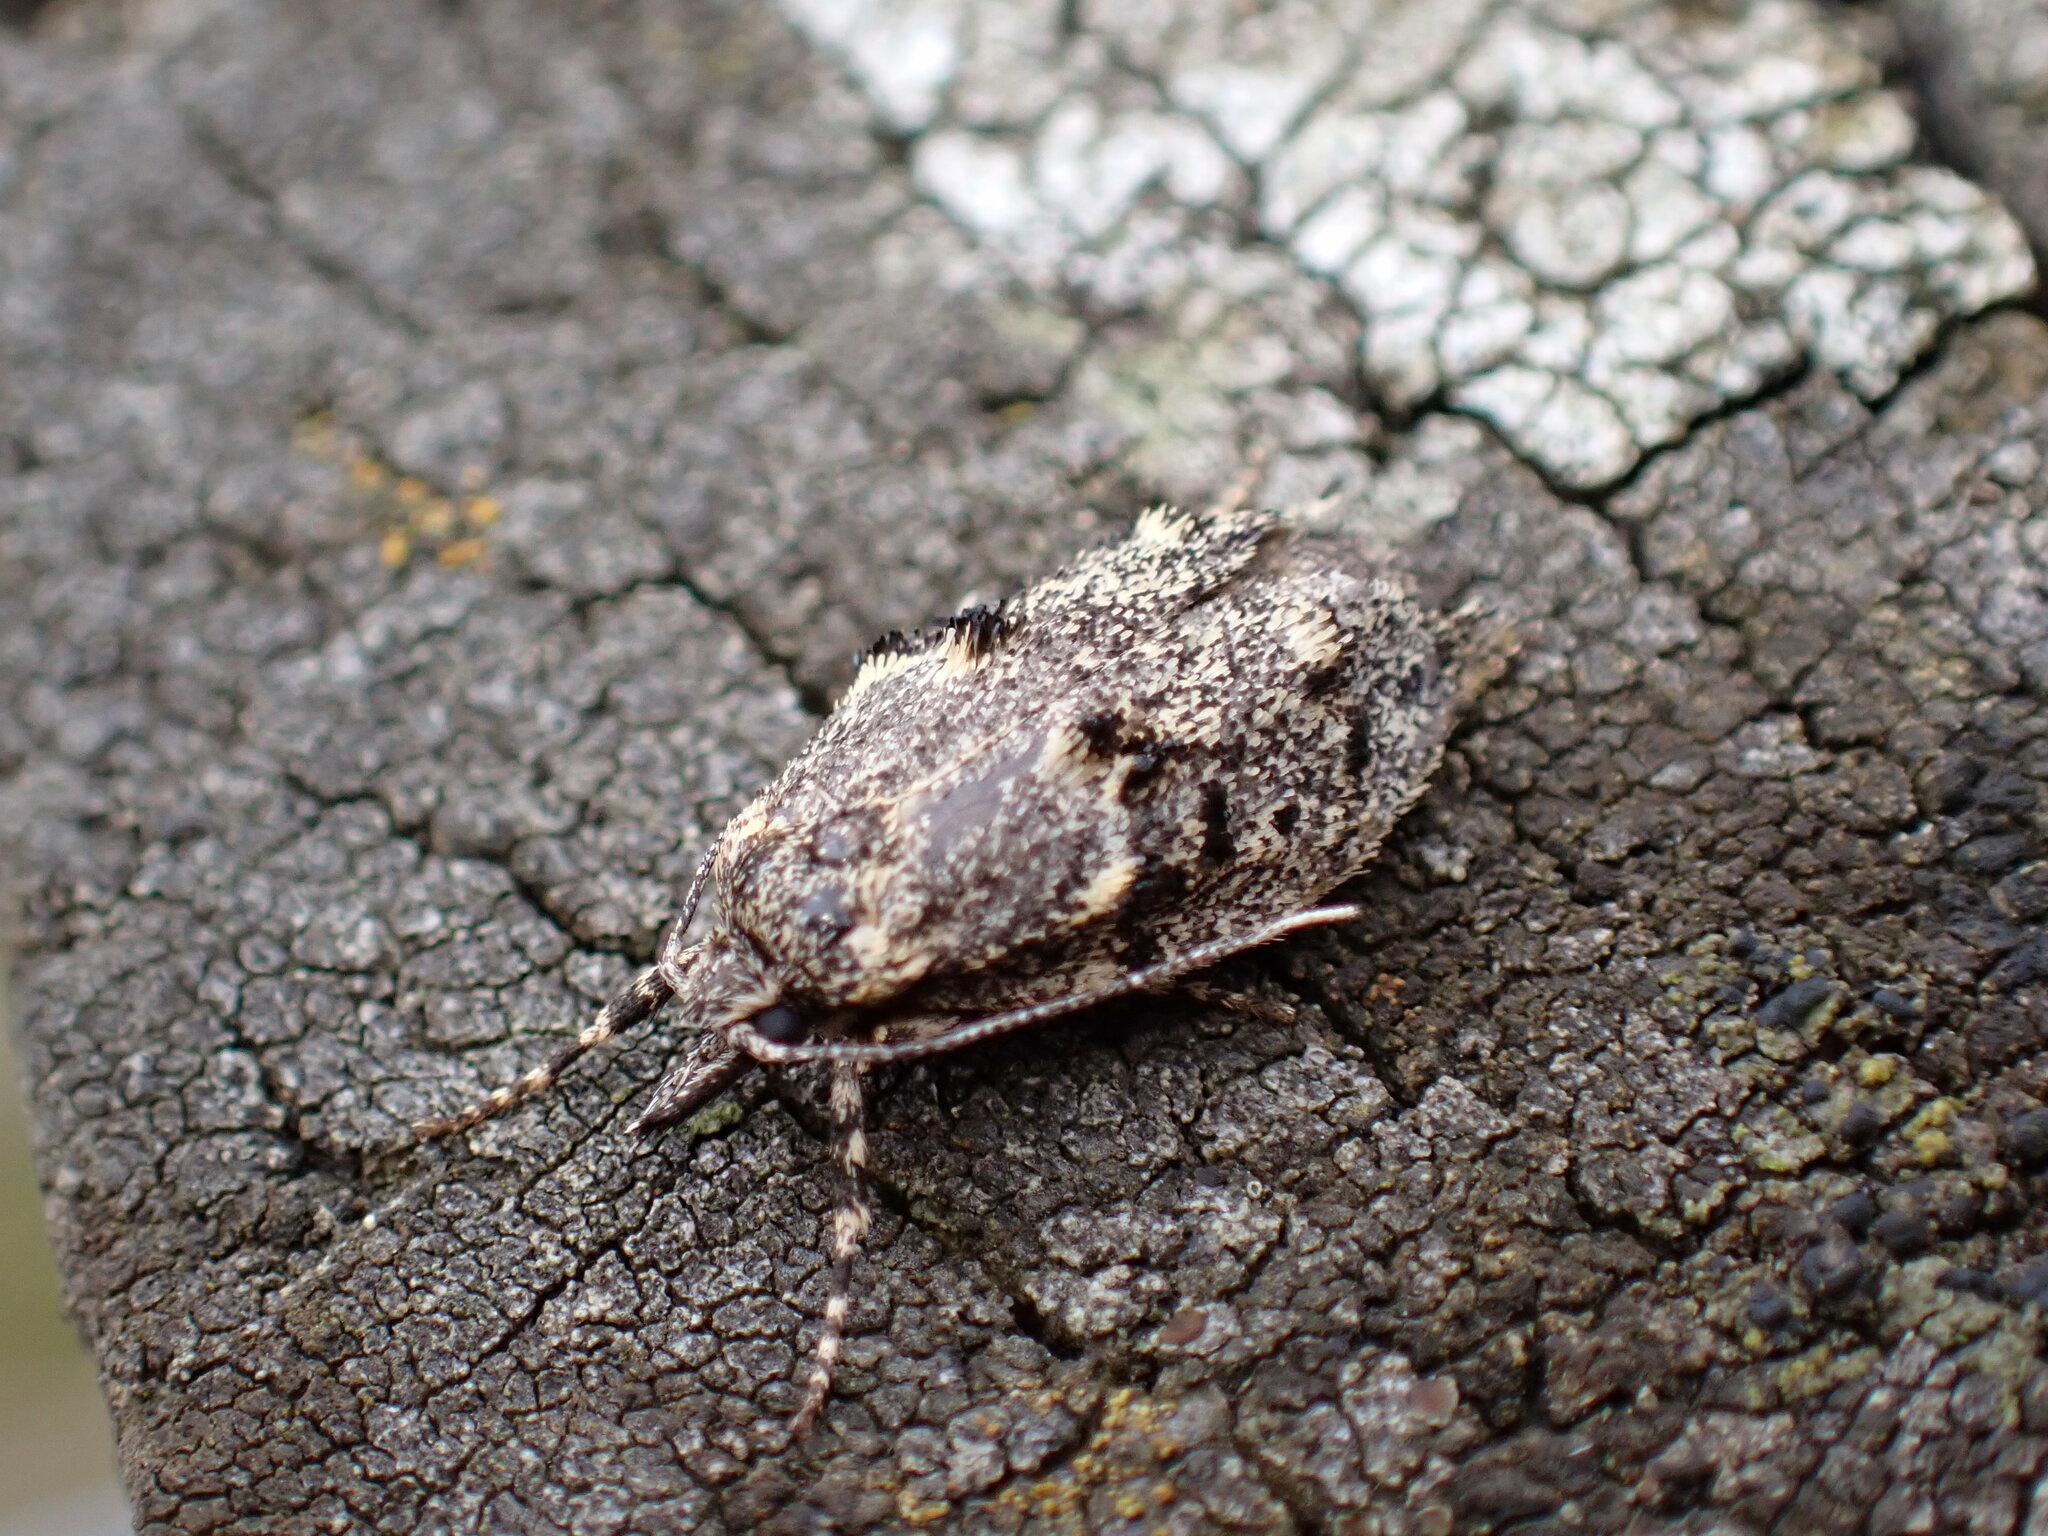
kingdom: Animalia
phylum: Arthropoda
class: Insecta
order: Lepidoptera
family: Lypusidae
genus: Diurnea
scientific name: Diurnea fagella
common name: March tubic
